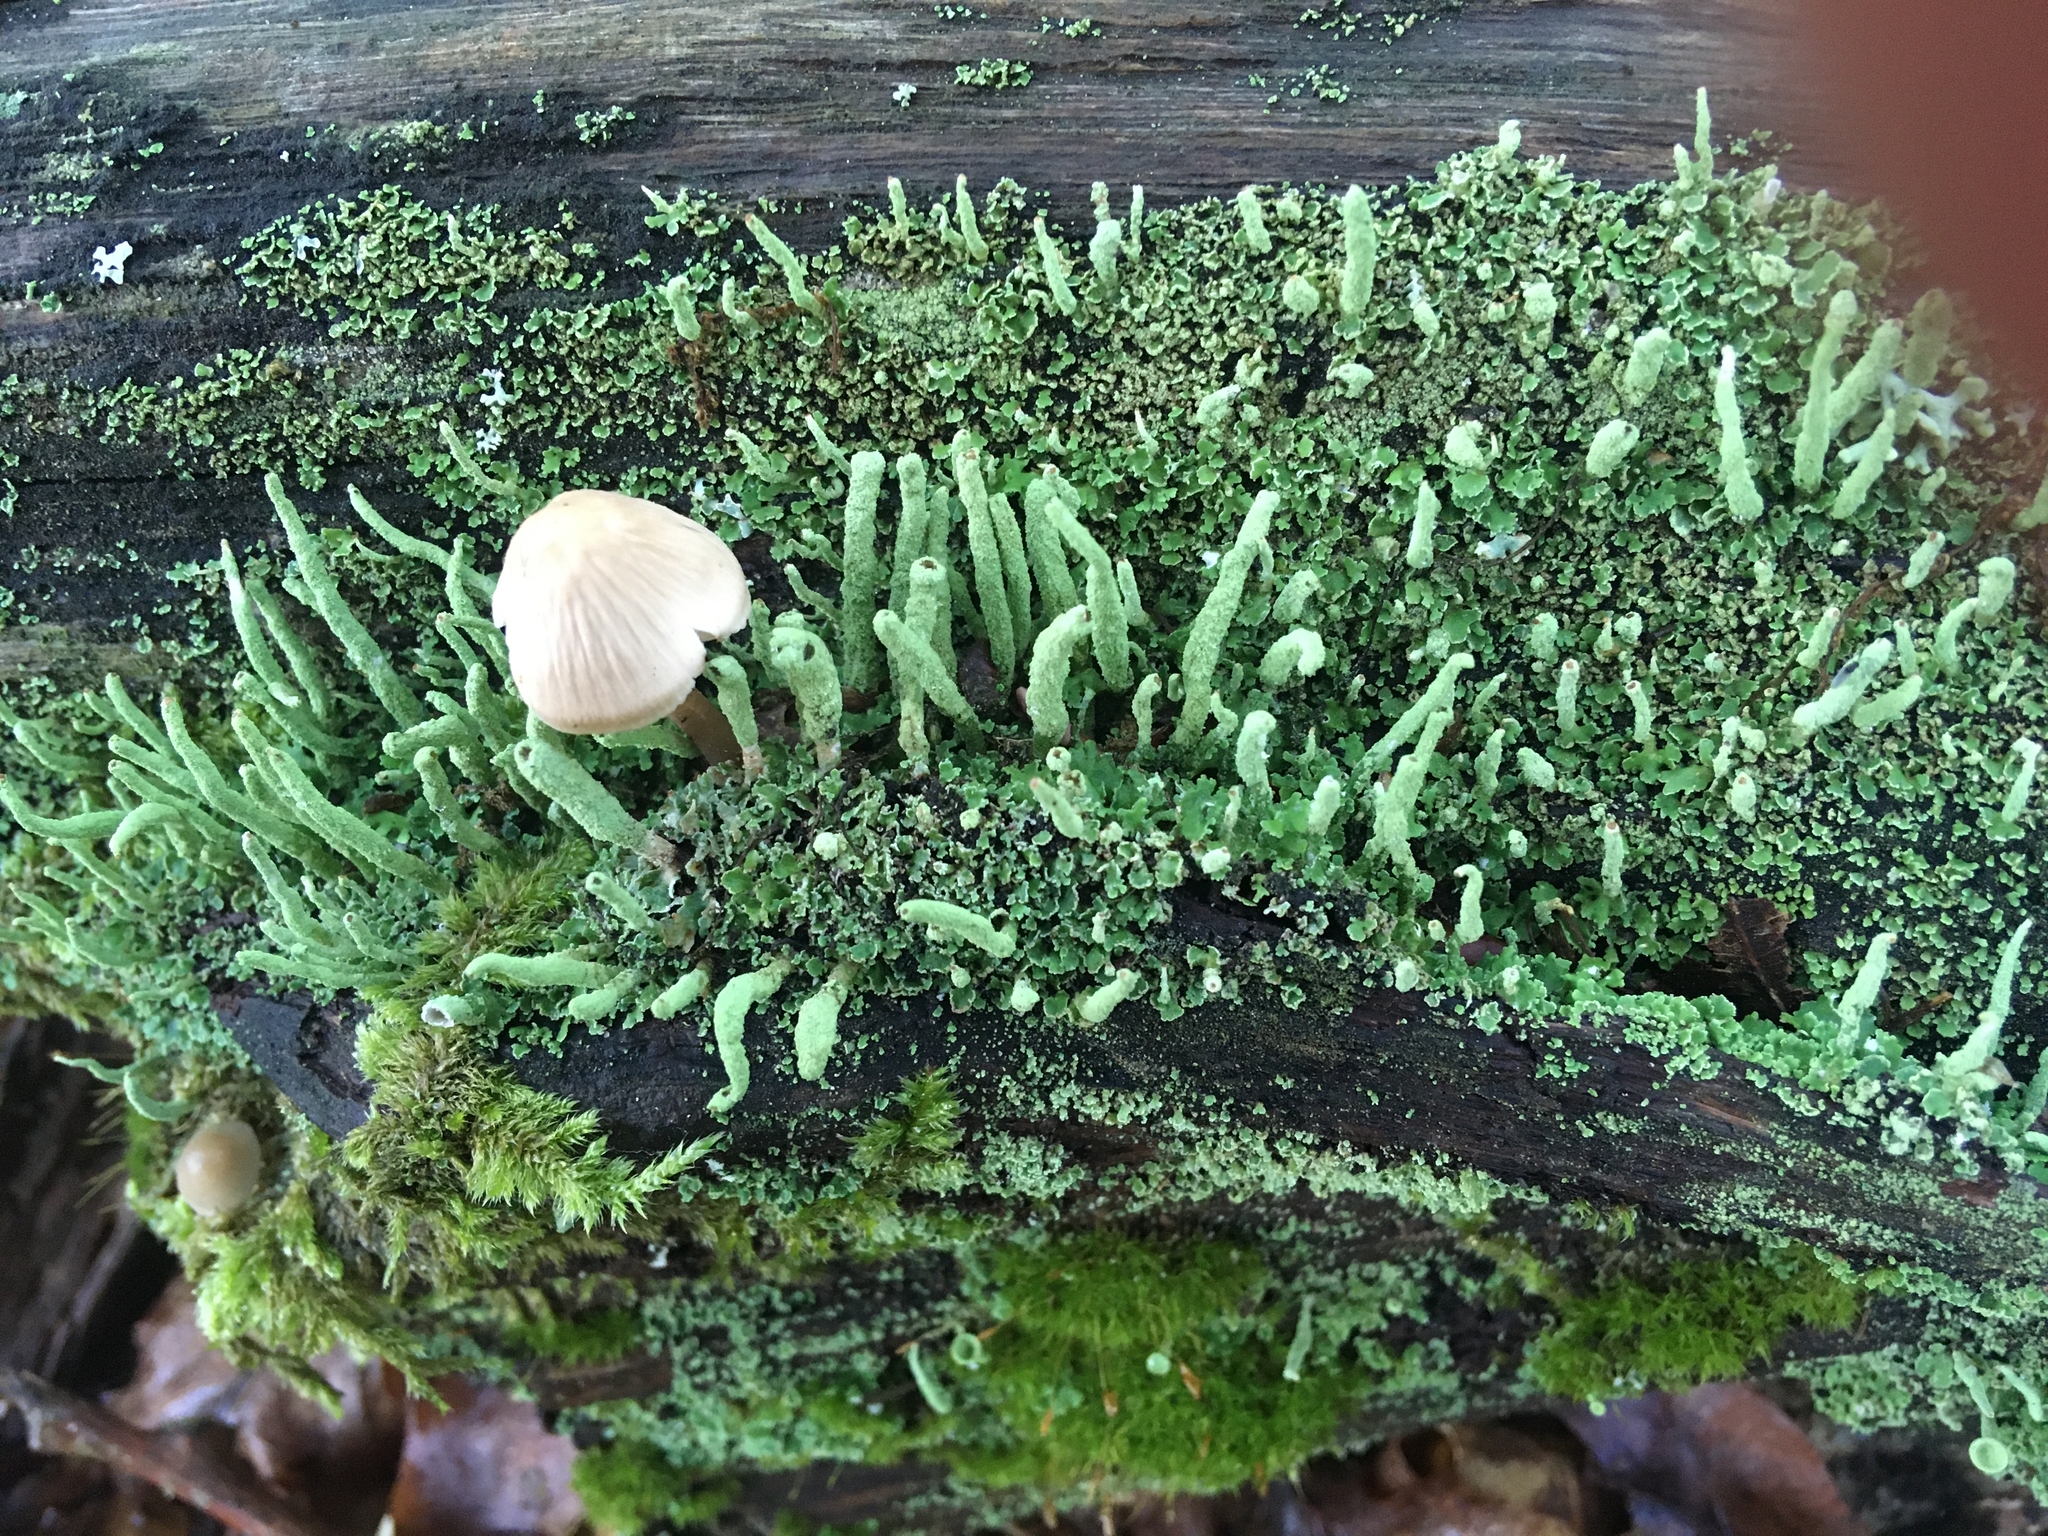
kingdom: Fungi
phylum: Ascomycota
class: Lecanoromycetes
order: Lecanorales
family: Cladoniaceae
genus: Cladonia
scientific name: Cladonia coniocraea
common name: Common powderhorn
